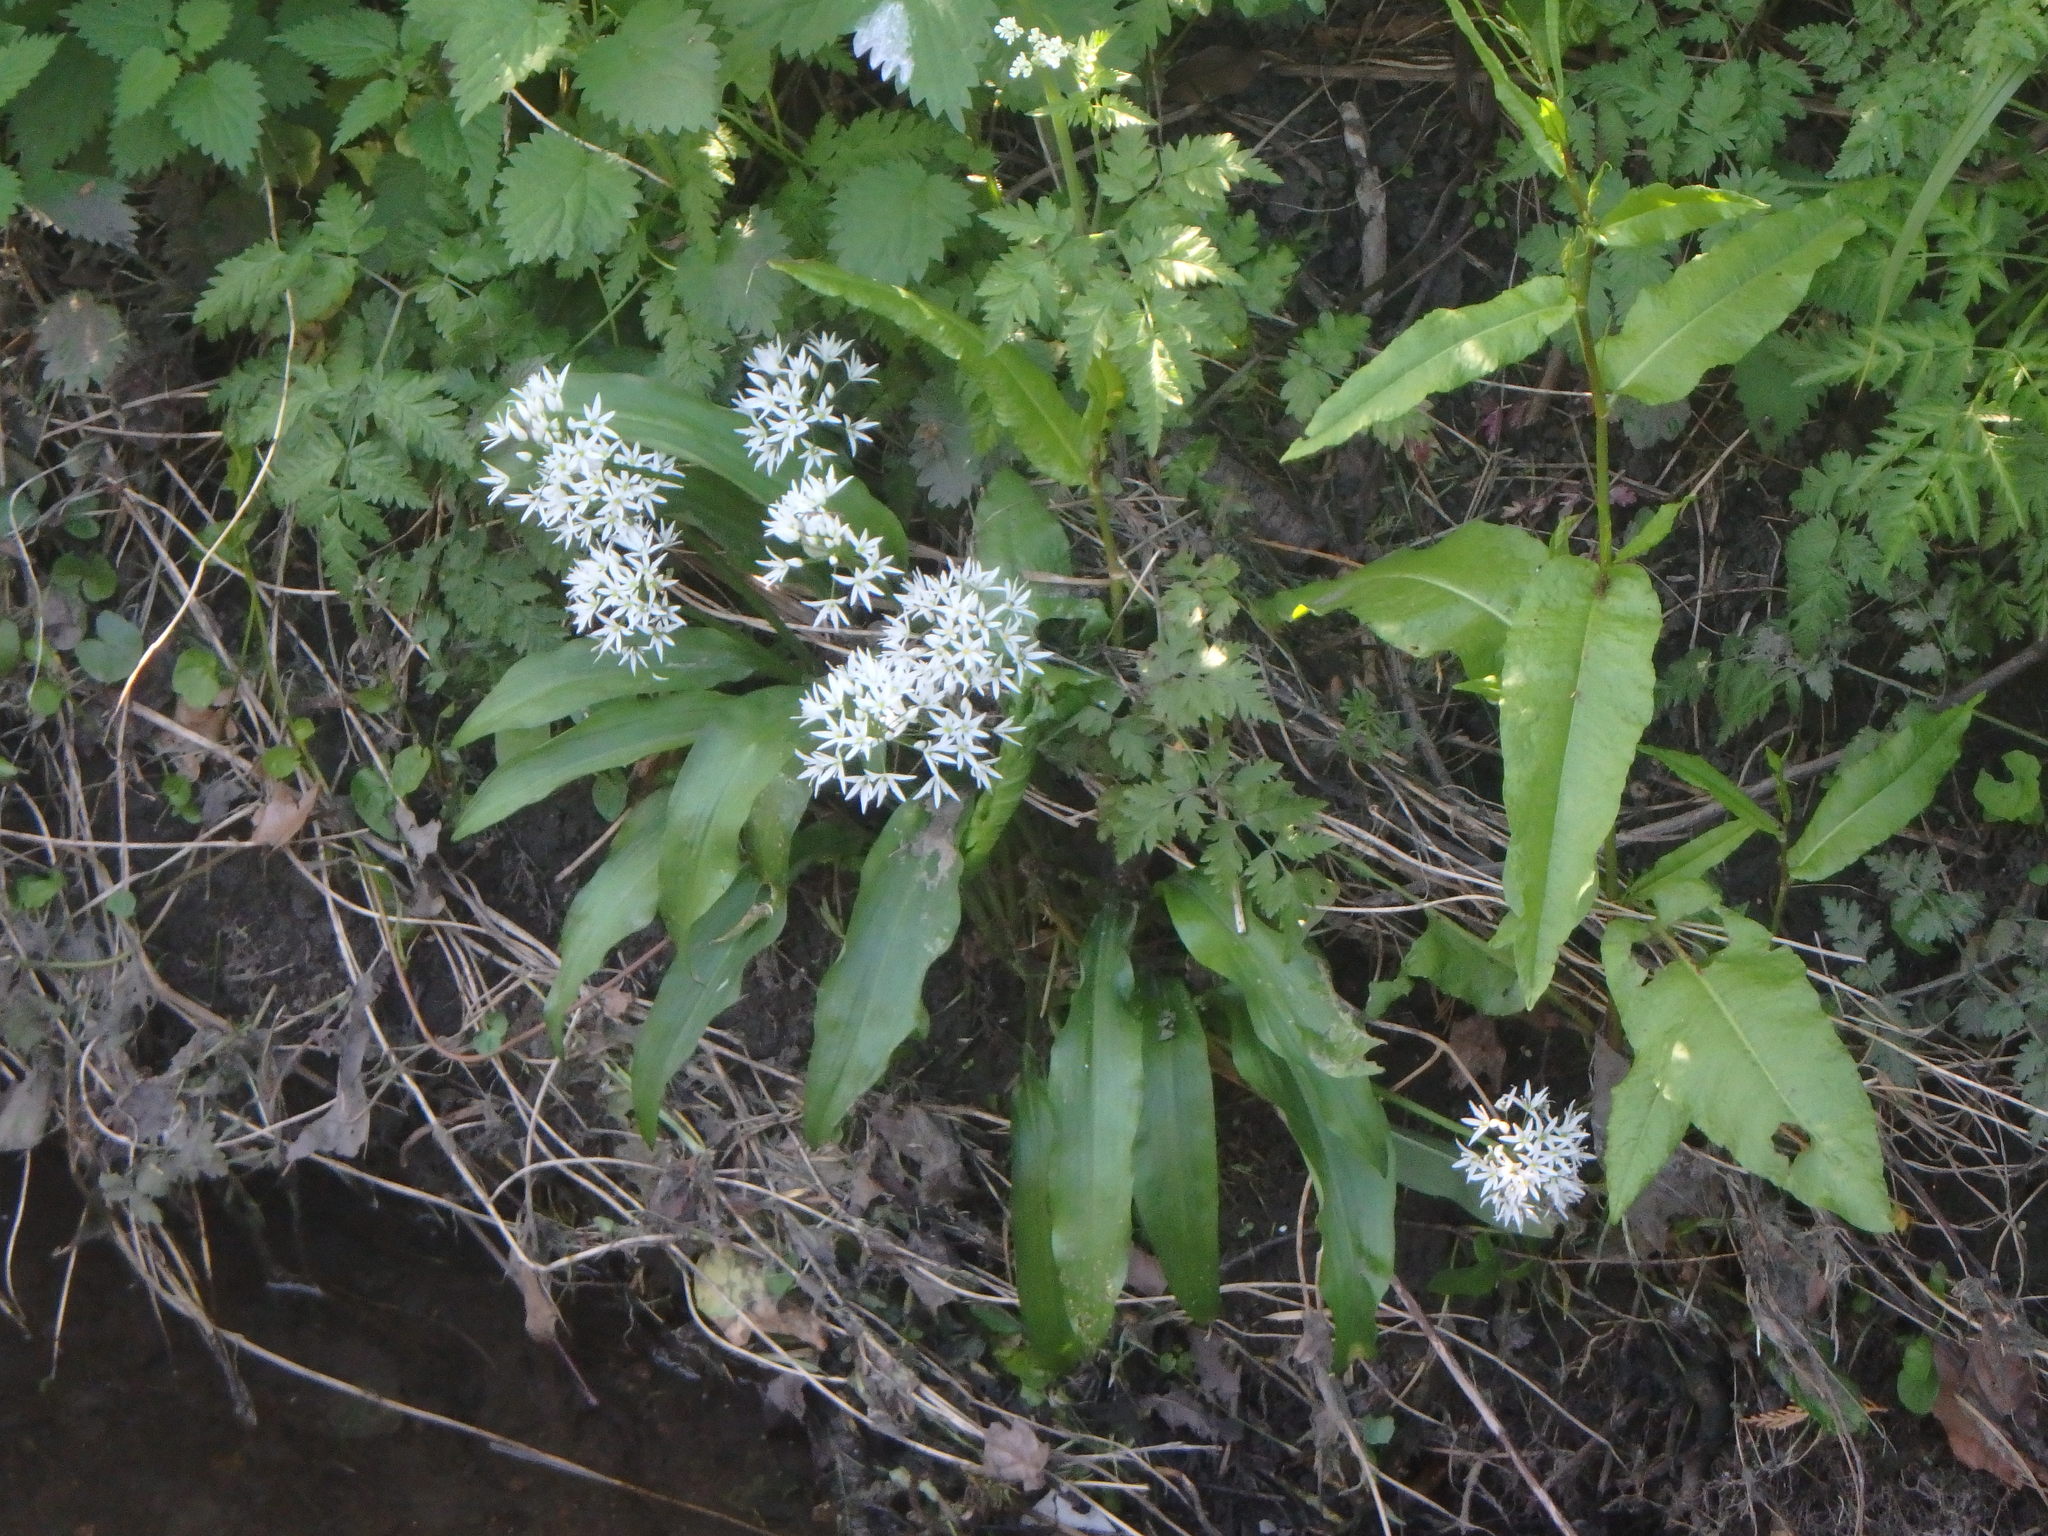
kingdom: Plantae
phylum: Tracheophyta
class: Liliopsida
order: Asparagales
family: Amaryllidaceae
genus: Allium
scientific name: Allium ursinum
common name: Ramsons
